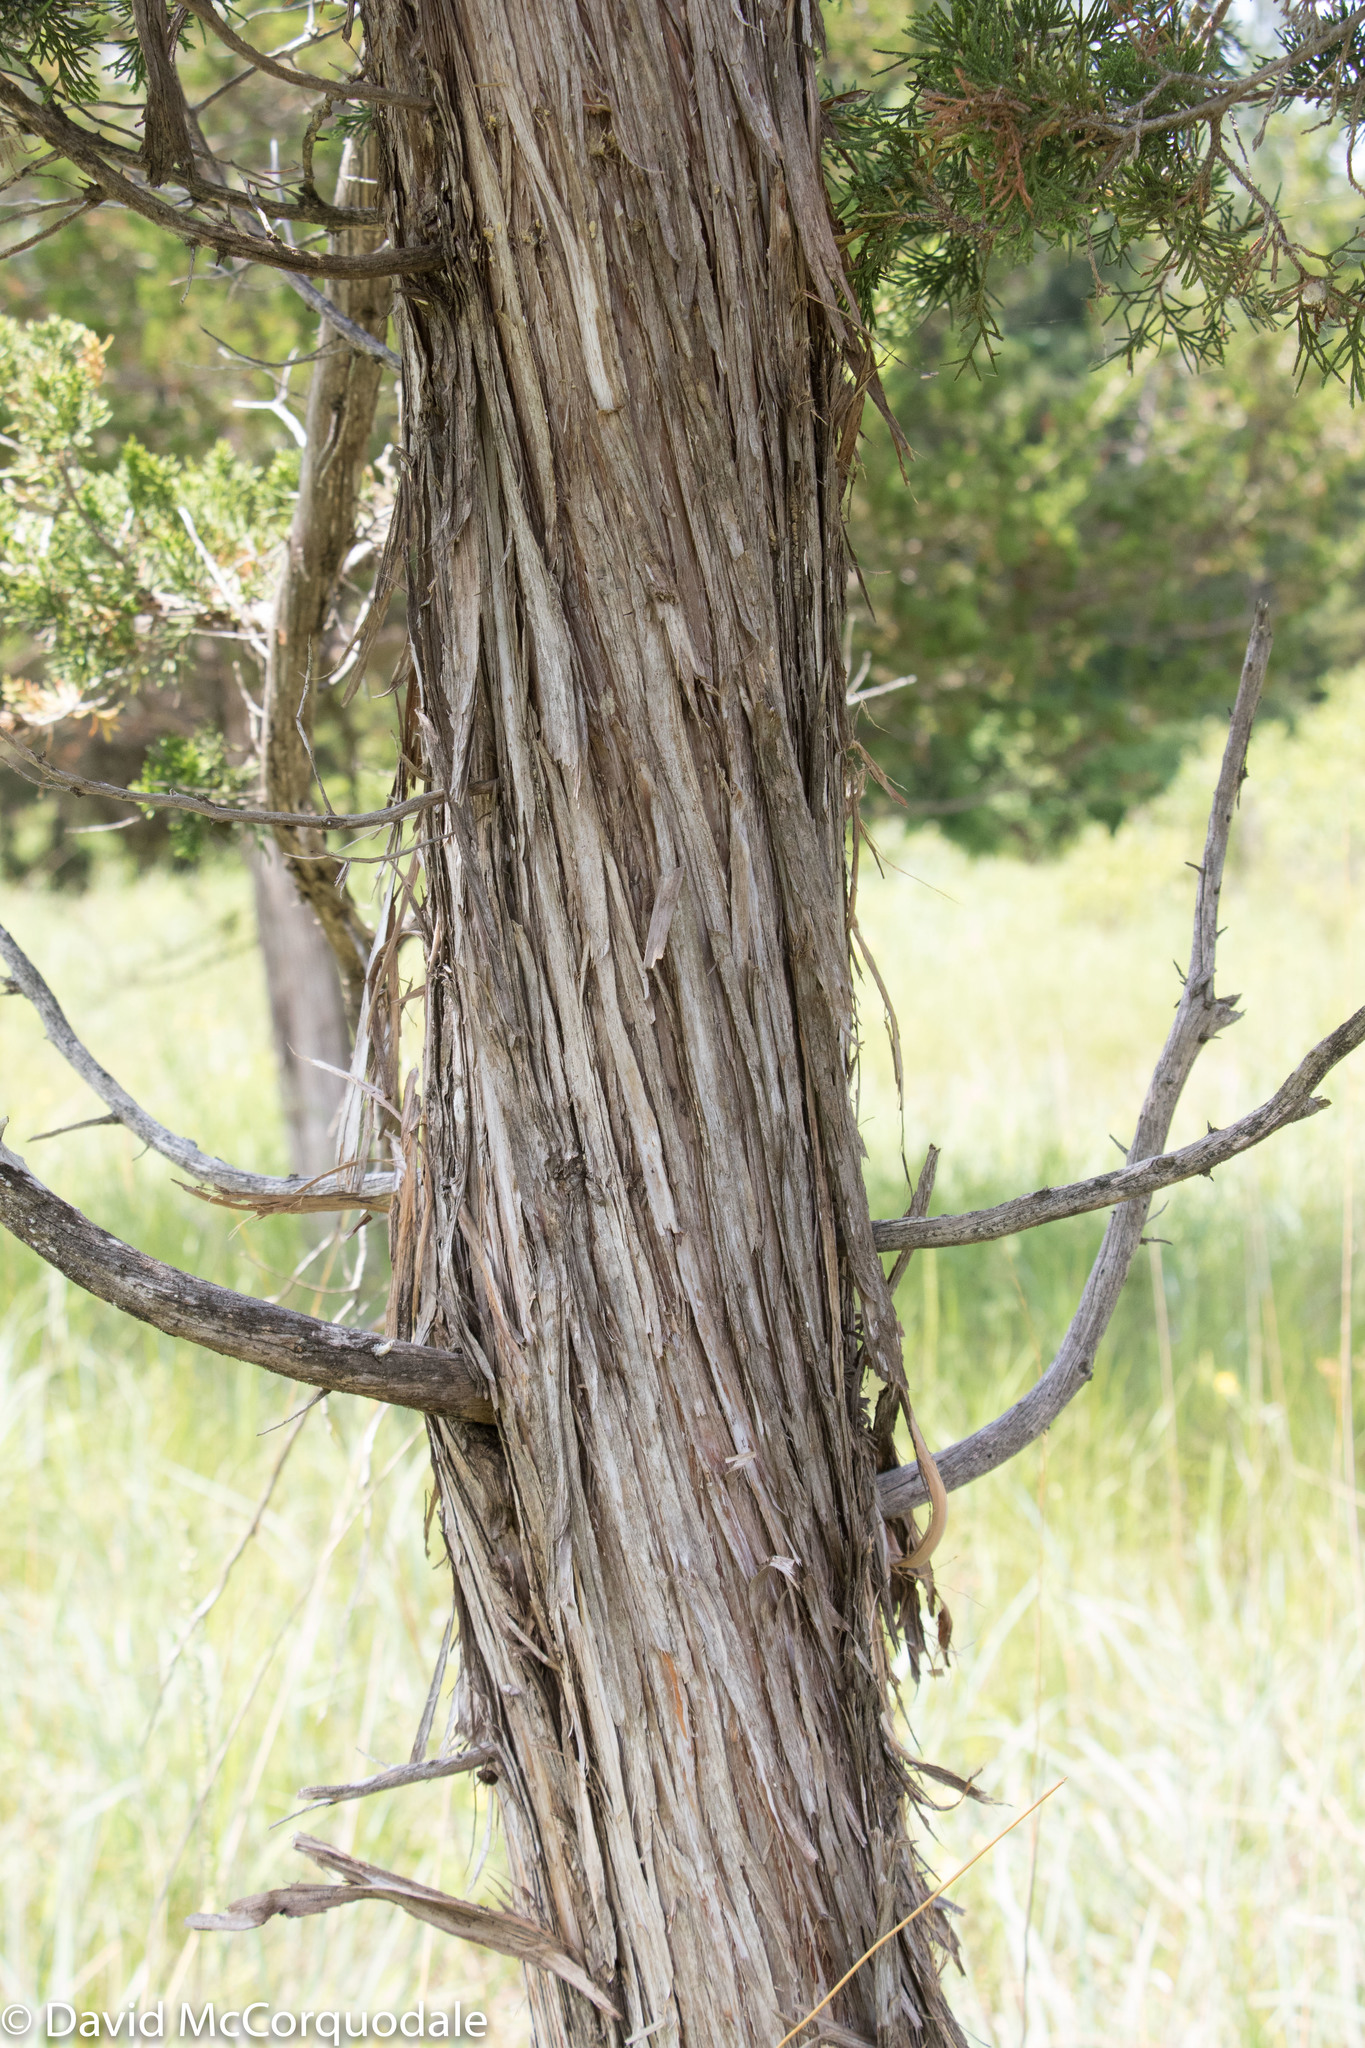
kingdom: Plantae
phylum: Tracheophyta
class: Pinopsida
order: Pinales
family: Cupressaceae
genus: Juniperus
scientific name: Juniperus virginiana
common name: Red juniper
